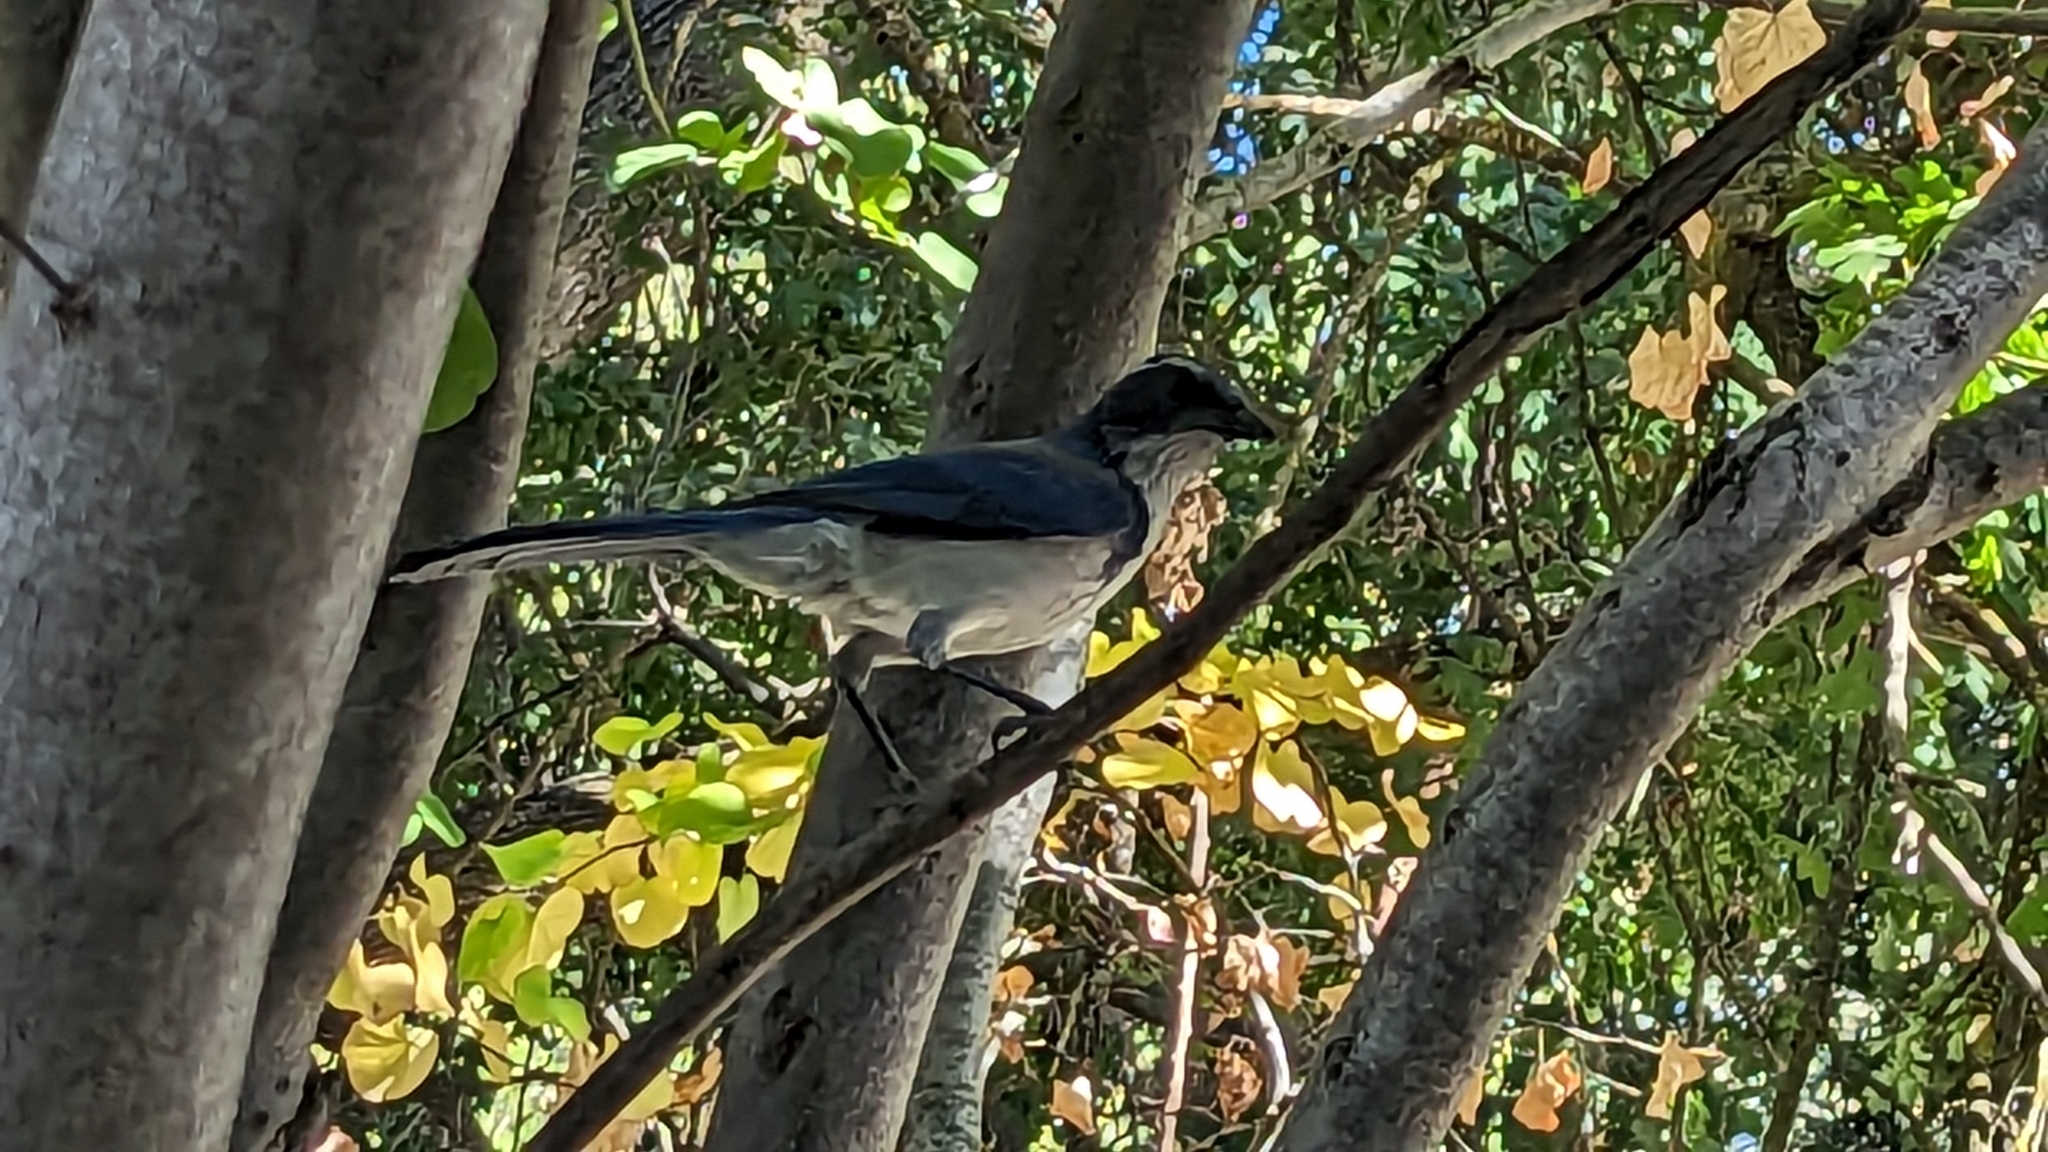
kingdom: Animalia
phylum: Chordata
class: Aves
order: Passeriformes
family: Corvidae
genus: Aphelocoma
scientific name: Aphelocoma californica
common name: California scrub-jay
